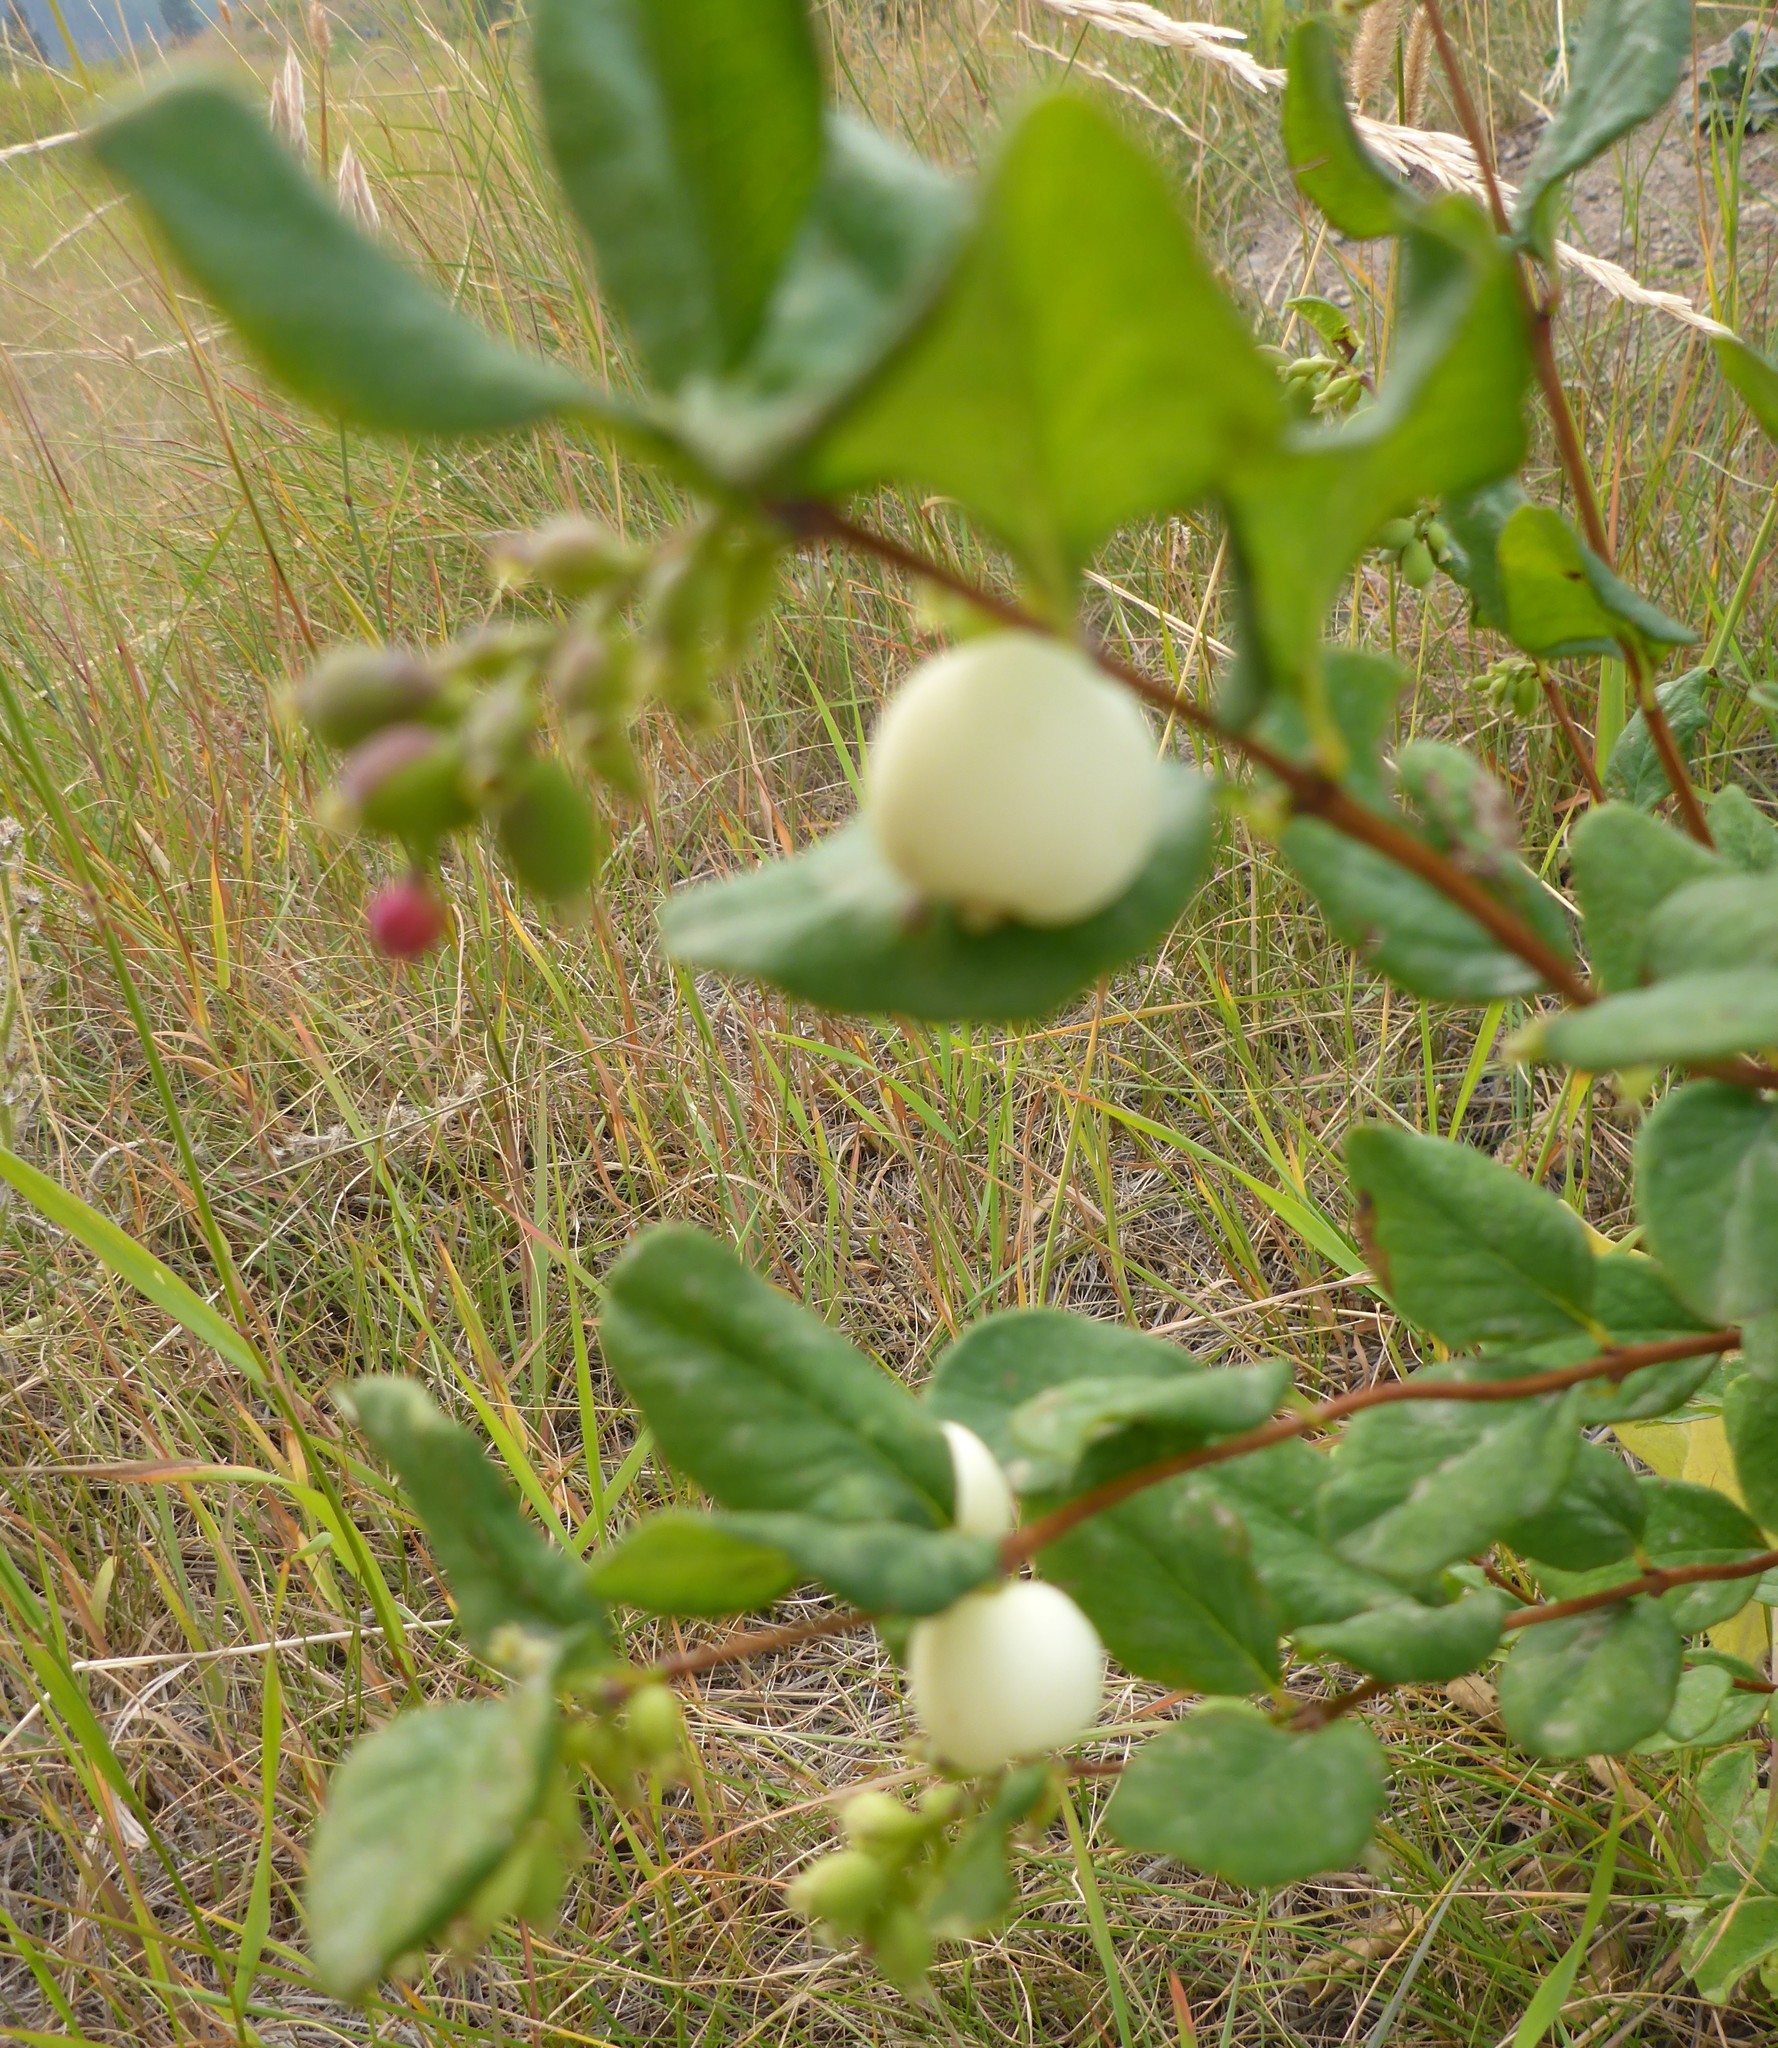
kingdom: Plantae
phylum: Tracheophyta
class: Magnoliopsida
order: Dipsacales
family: Caprifoliaceae
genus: Symphoricarpos
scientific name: Symphoricarpos albus
